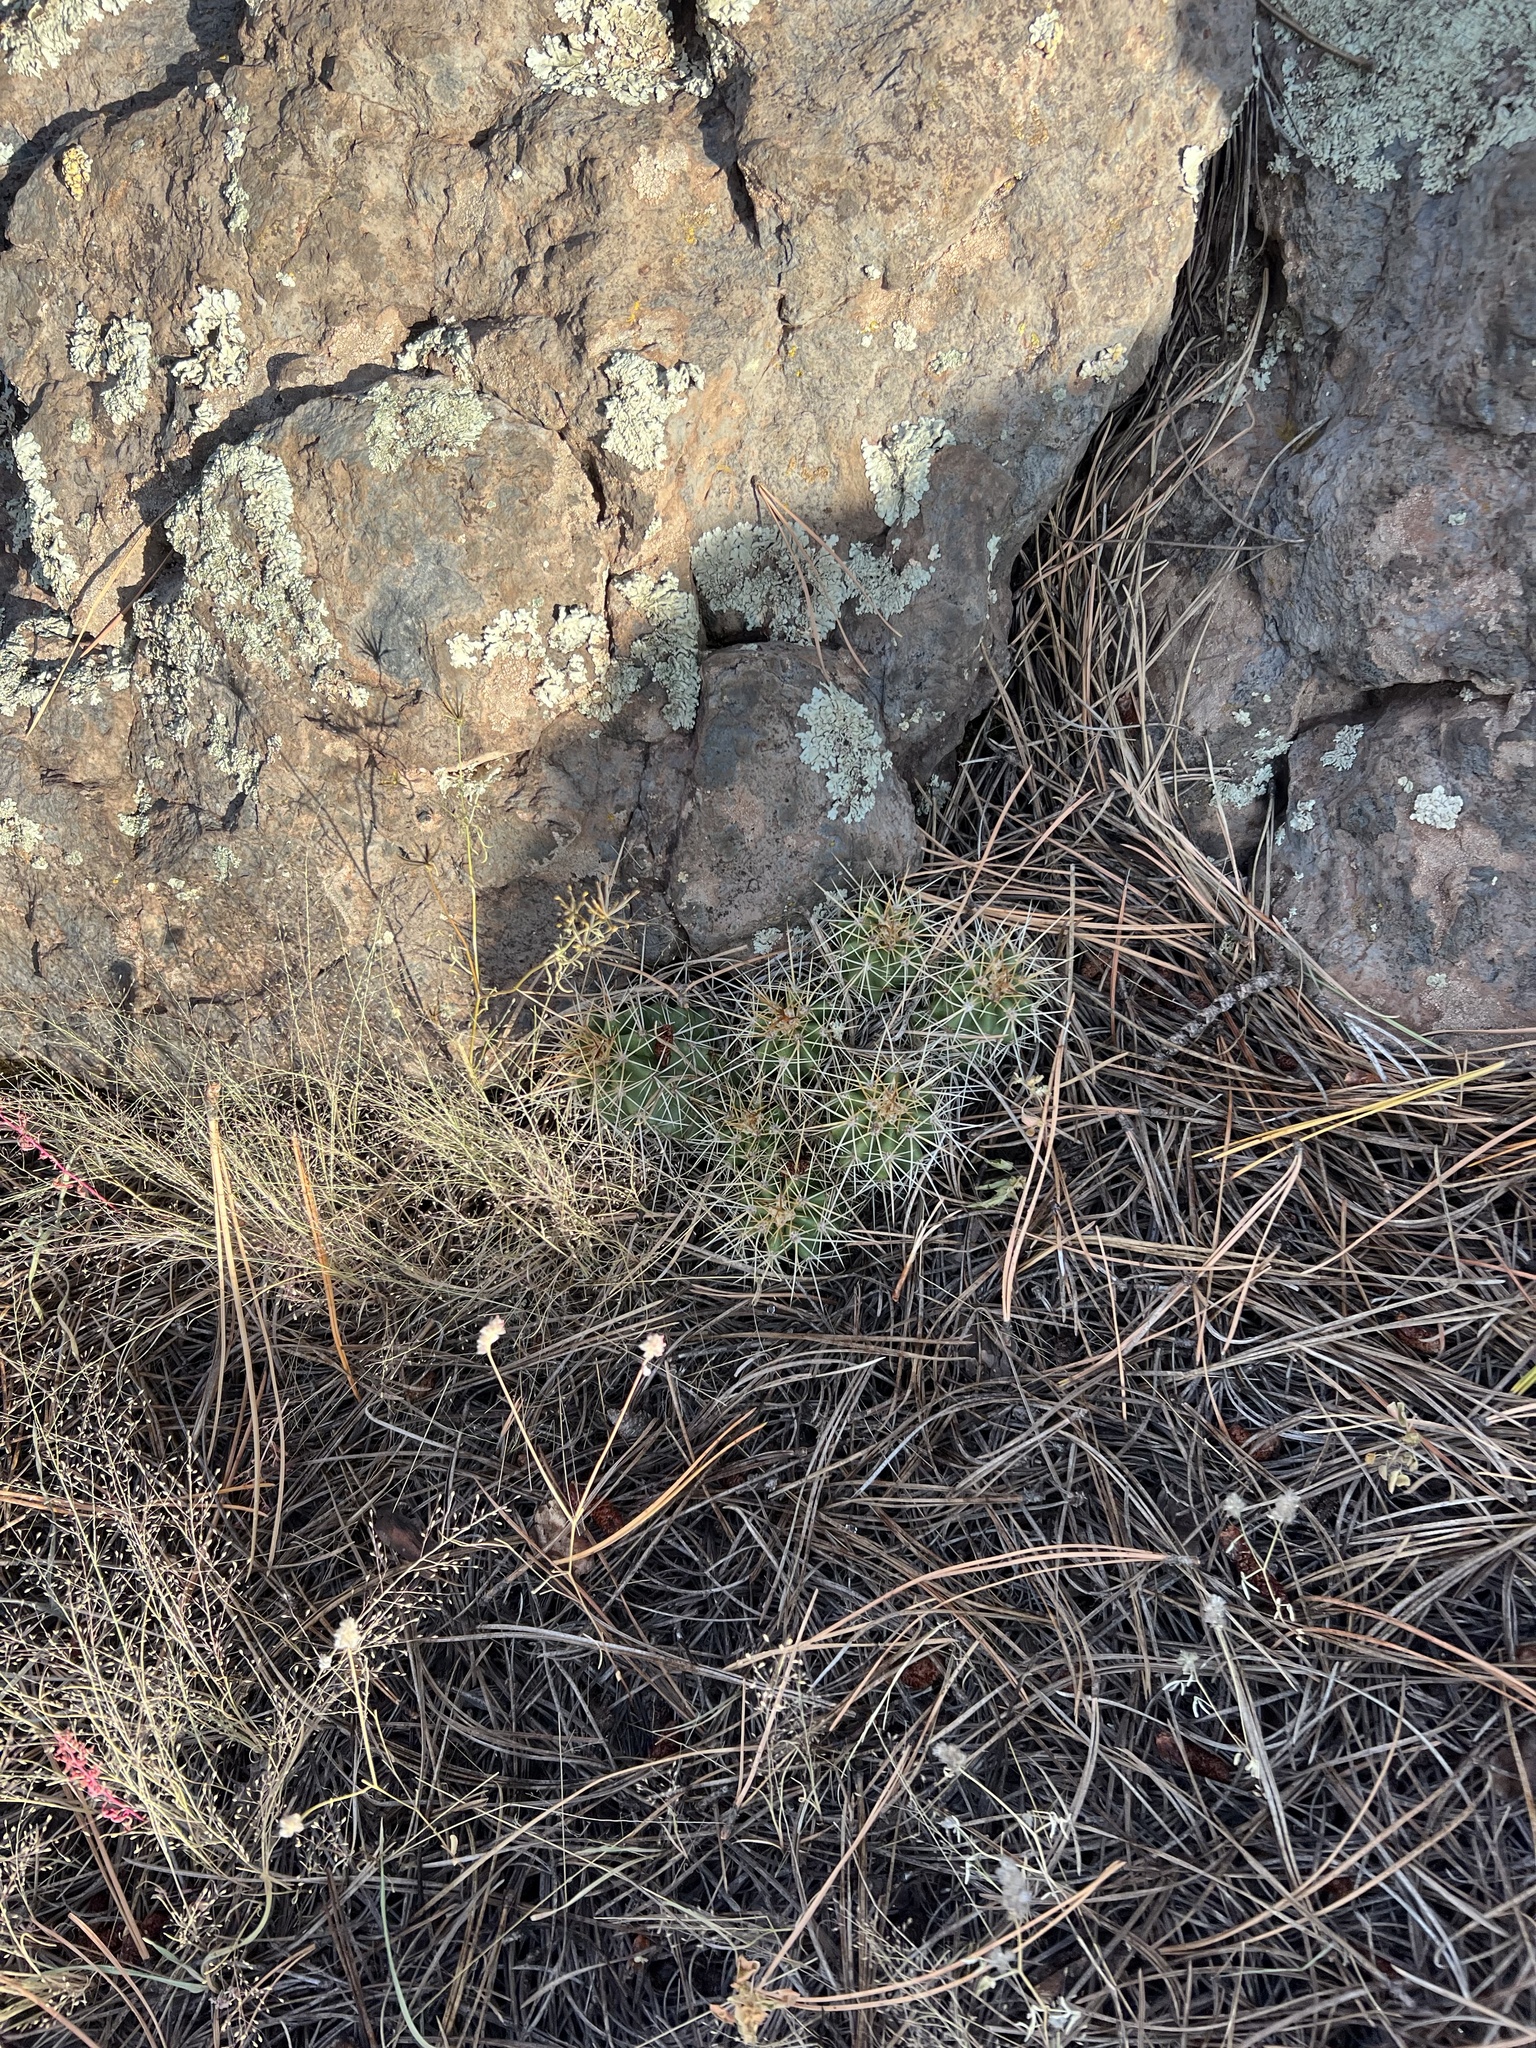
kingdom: Plantae
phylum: Tracheophyta
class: Magnoliopsida
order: Caryophyllales
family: Cactaceae
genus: Echinocereus
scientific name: Echinocereus bakeri
